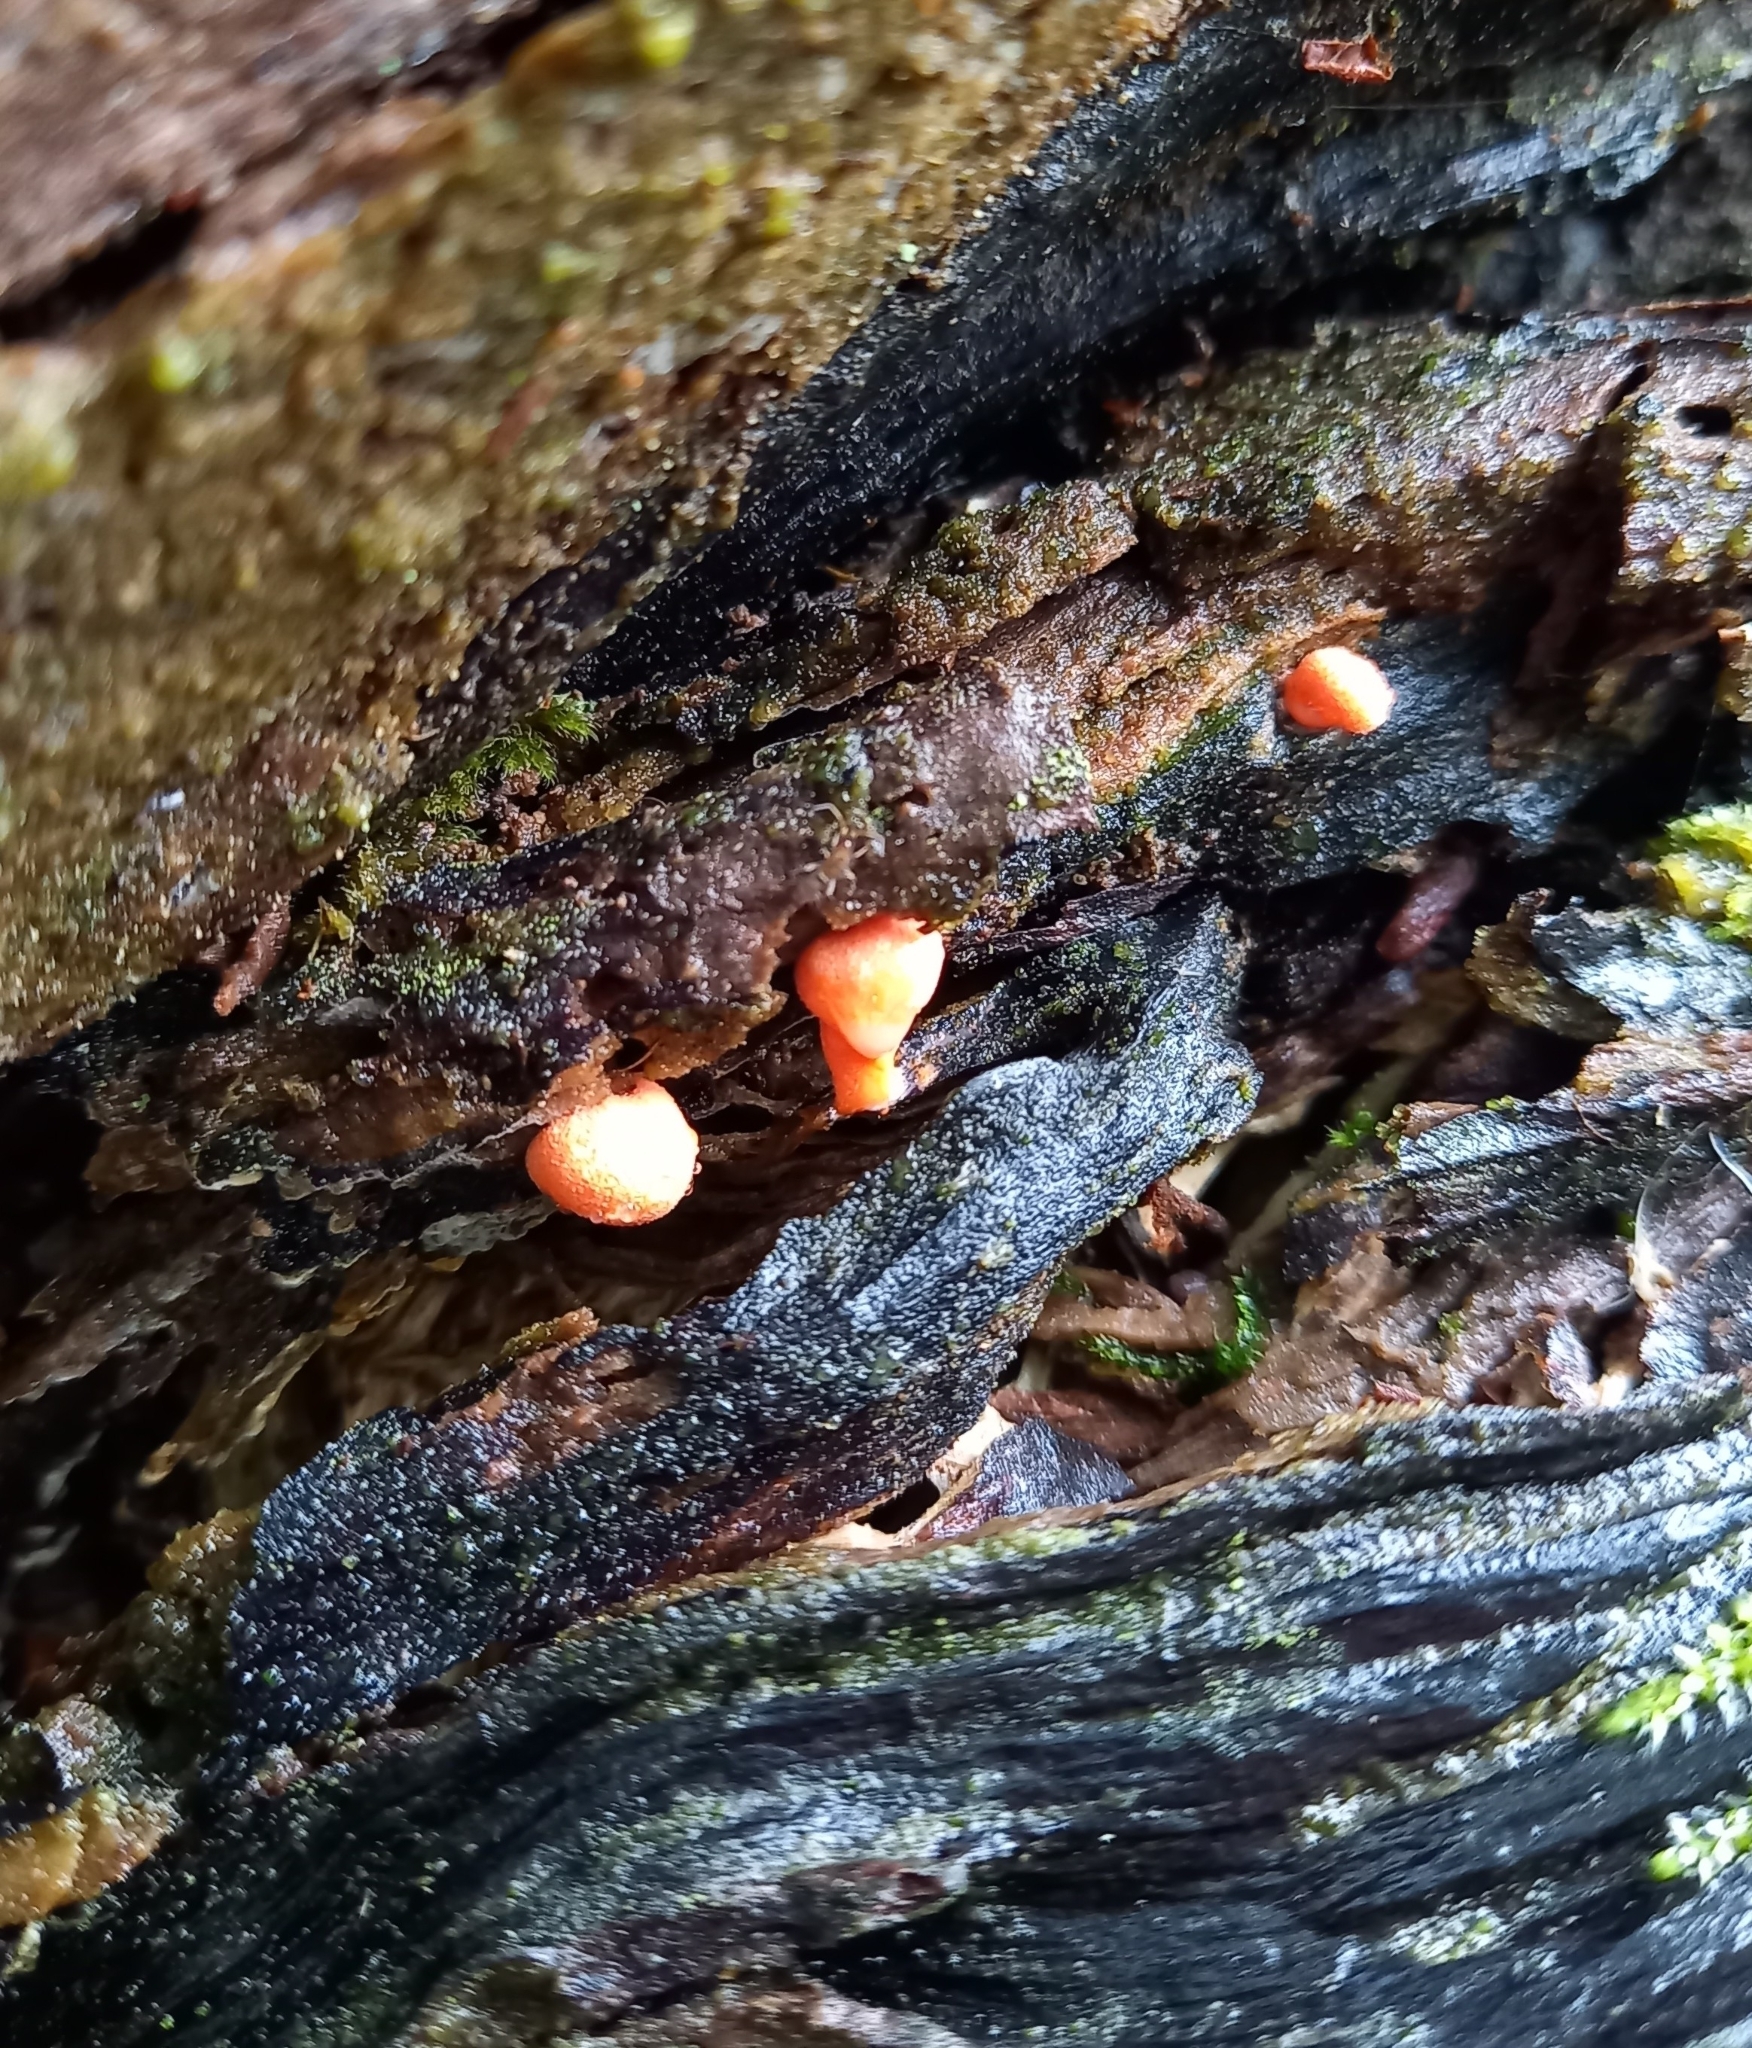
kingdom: Protozoa
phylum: Mycetozoa
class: Myxomycetes
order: Cribrariales
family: Tubiferaceae
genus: Lycogala
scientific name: Lycogala epidendrum
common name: Wolf's milk
